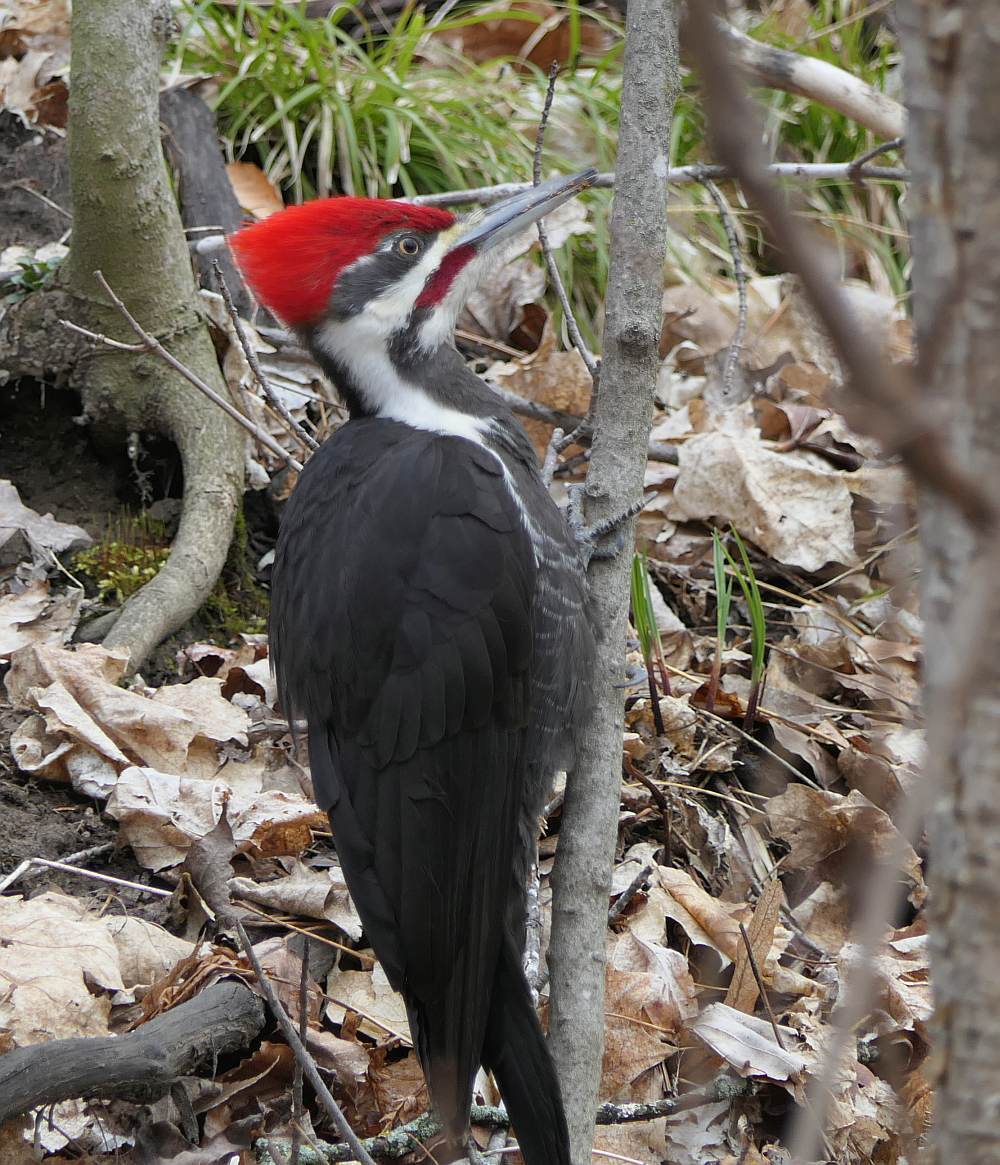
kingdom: Animalia
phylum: Chordata
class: Aves
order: Piciformes
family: Picidae
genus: Dryocopus
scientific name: Dryocopus pileatus
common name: Pileated woodpecker
